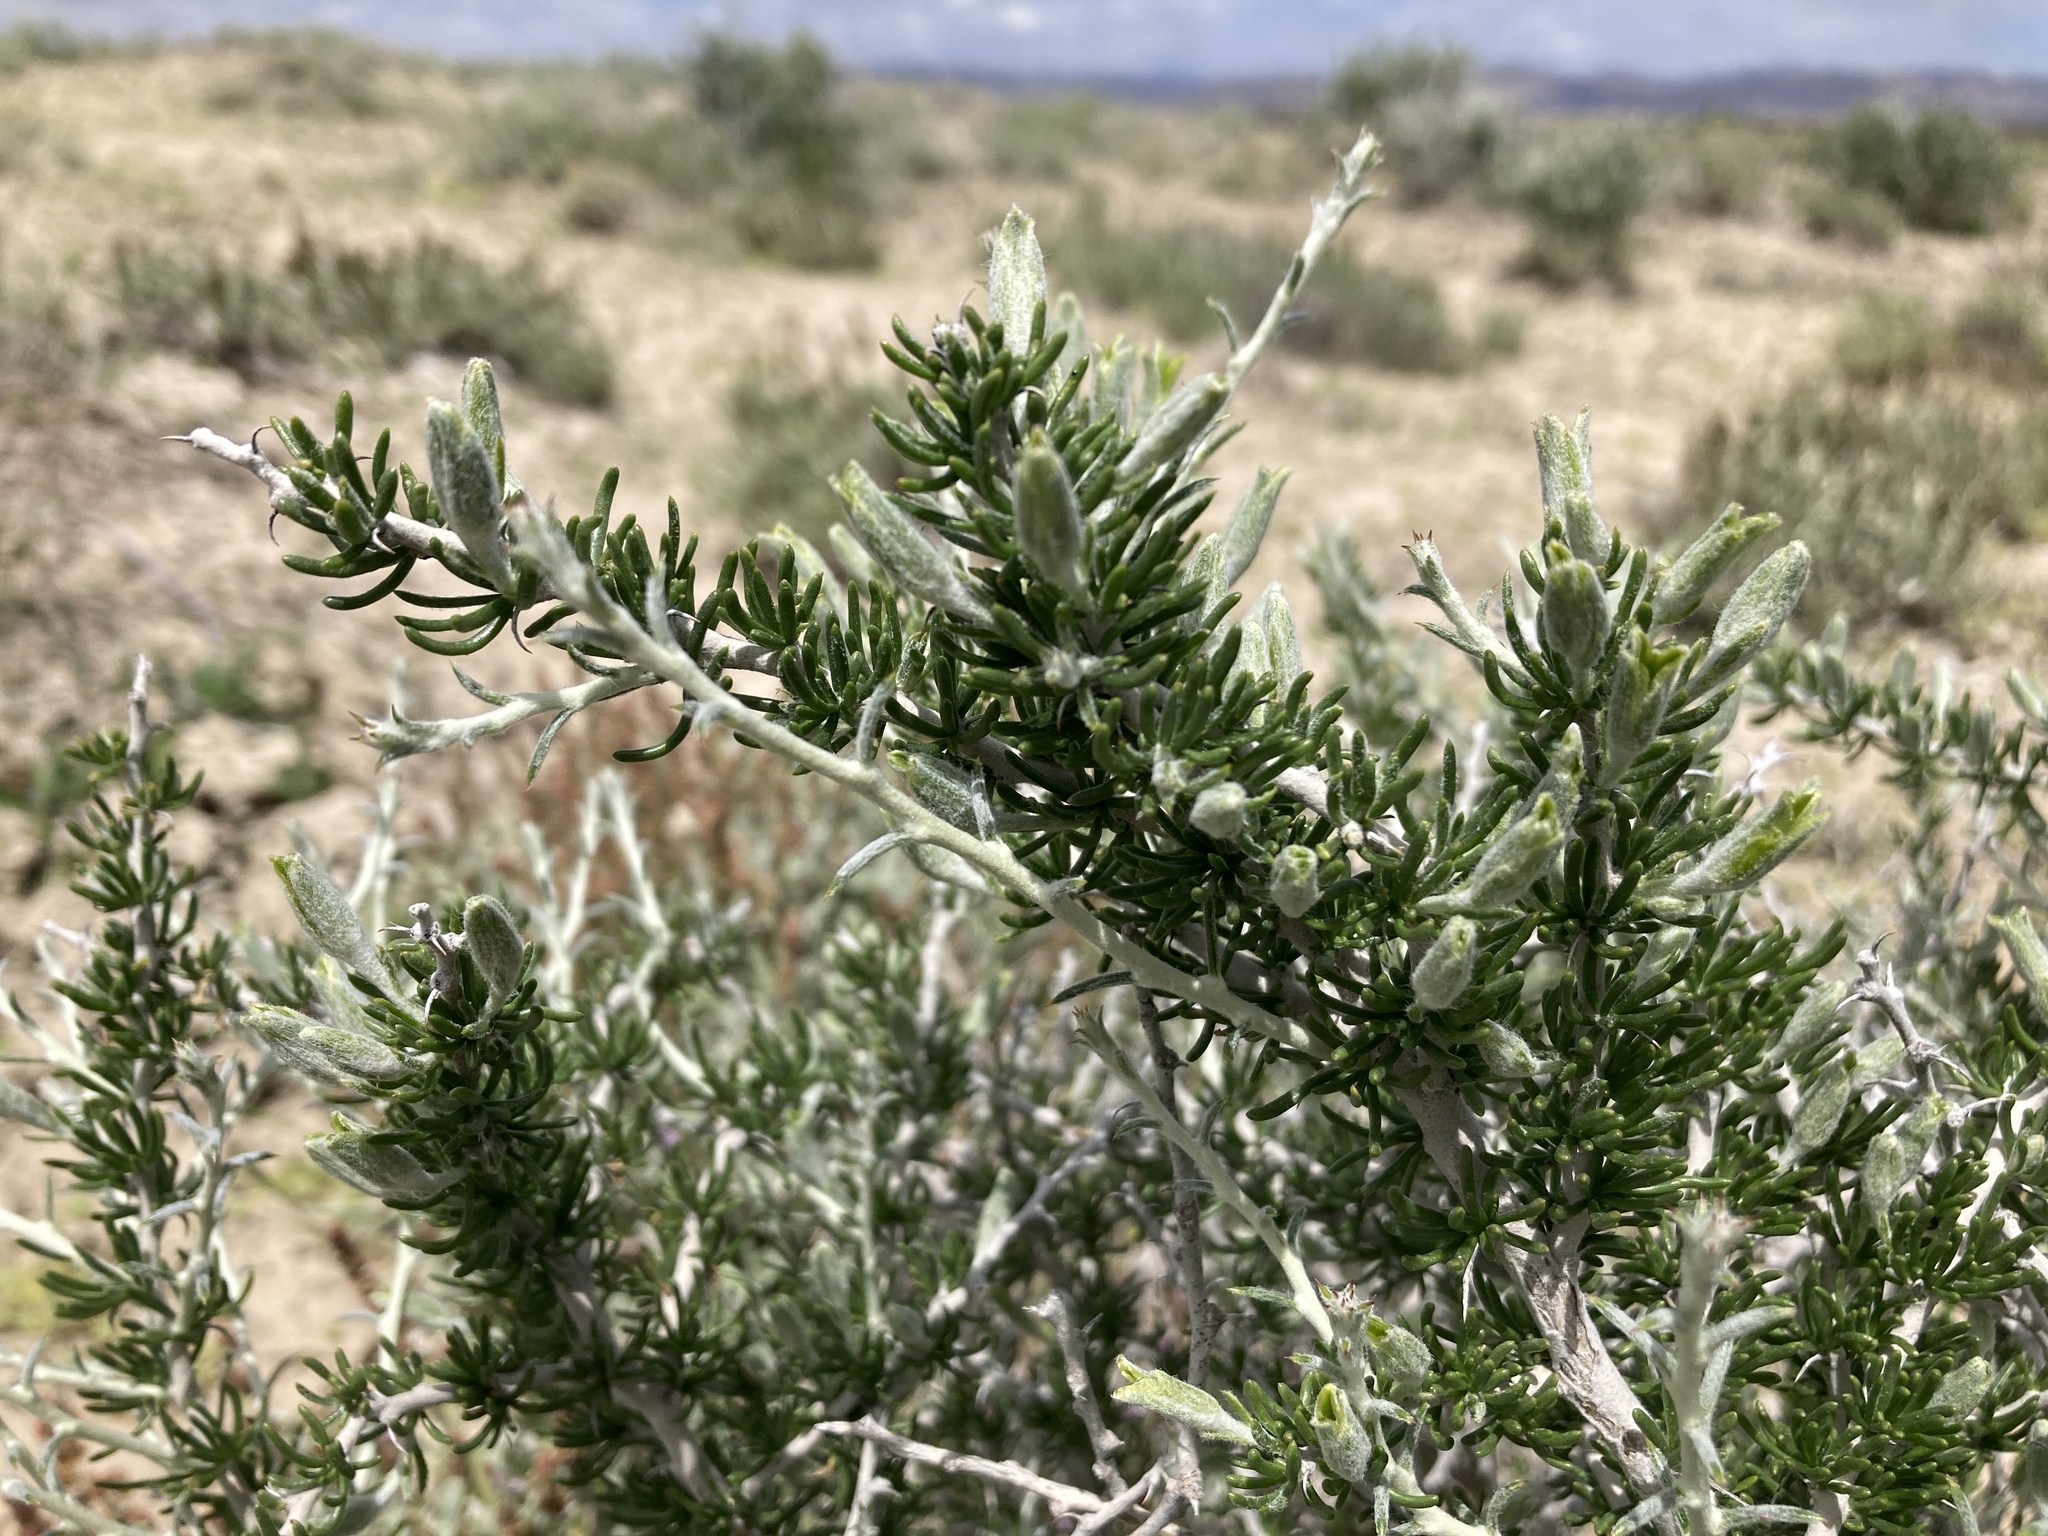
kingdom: Plantae
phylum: Tracheophyta
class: Magnoliopsida
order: Asterales
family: Asteraceae
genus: Tetradymia
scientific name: Tetradymia spinosa
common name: Thorny horsebrush
